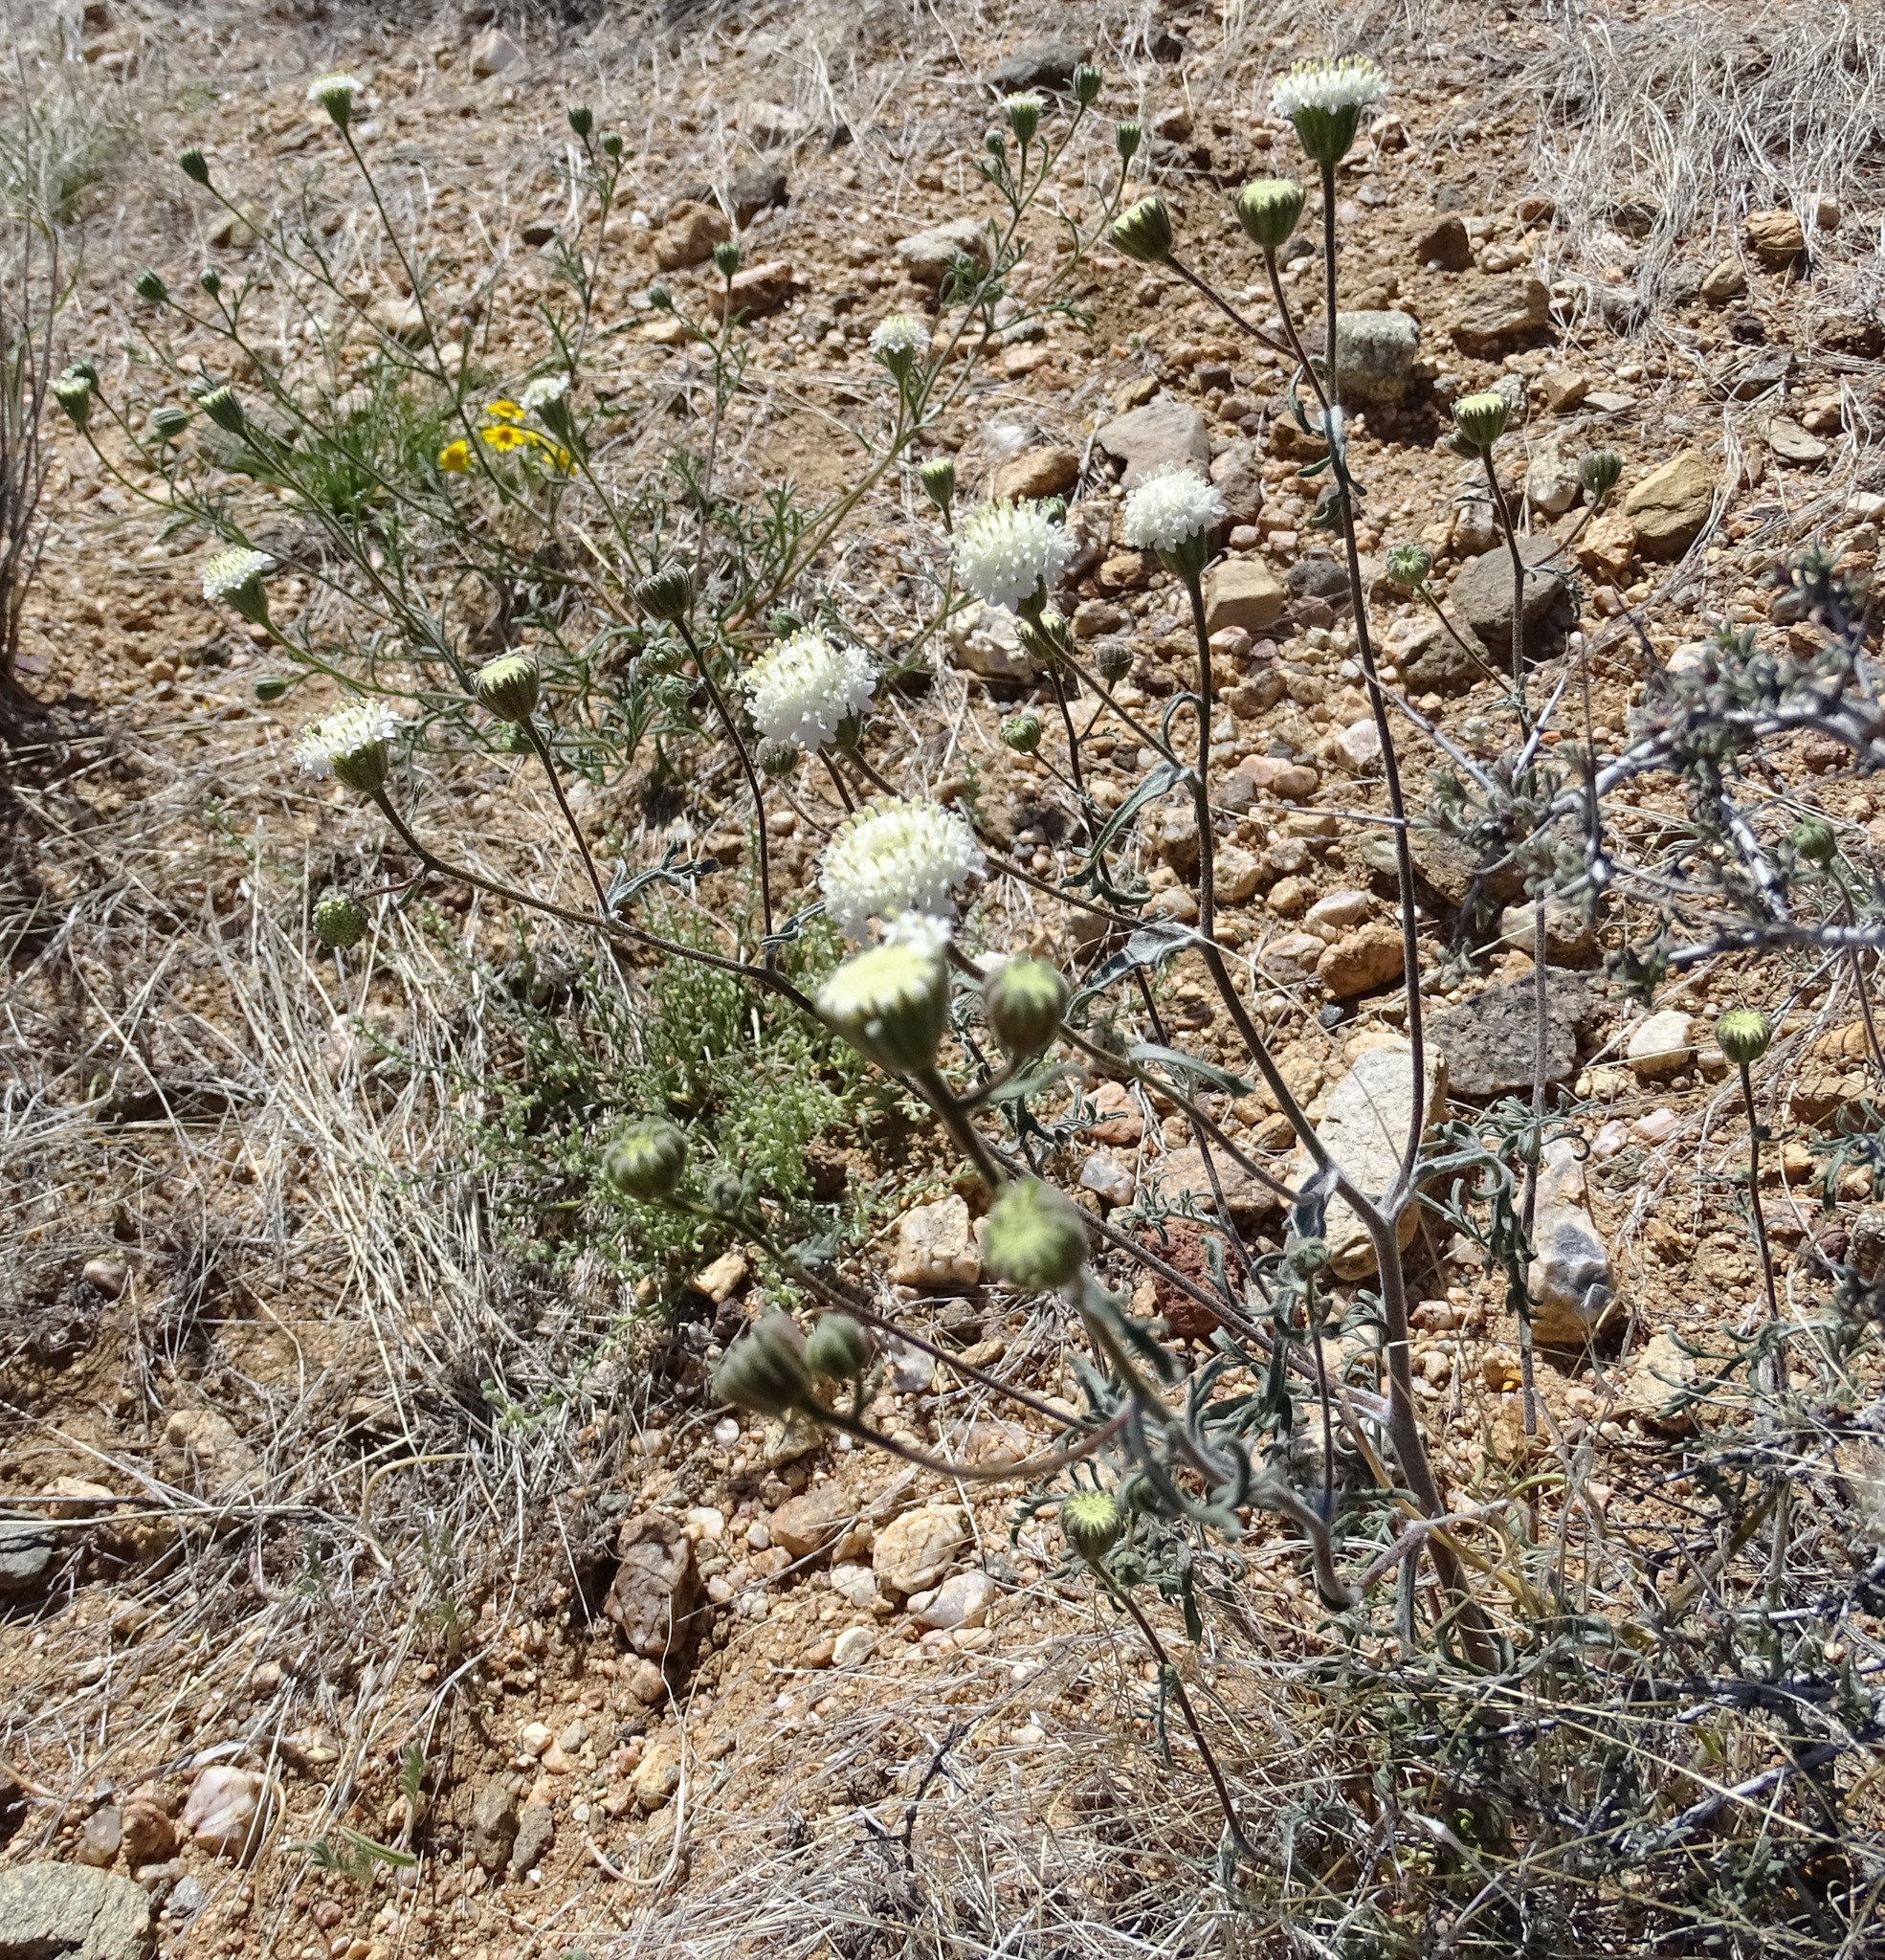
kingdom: Plantae
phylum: Tracheophyta
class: Magnoliopsida
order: Asterales
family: Asteraceae
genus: Chaenactis
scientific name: Chaenactis stevioides
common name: Desert pincushion
